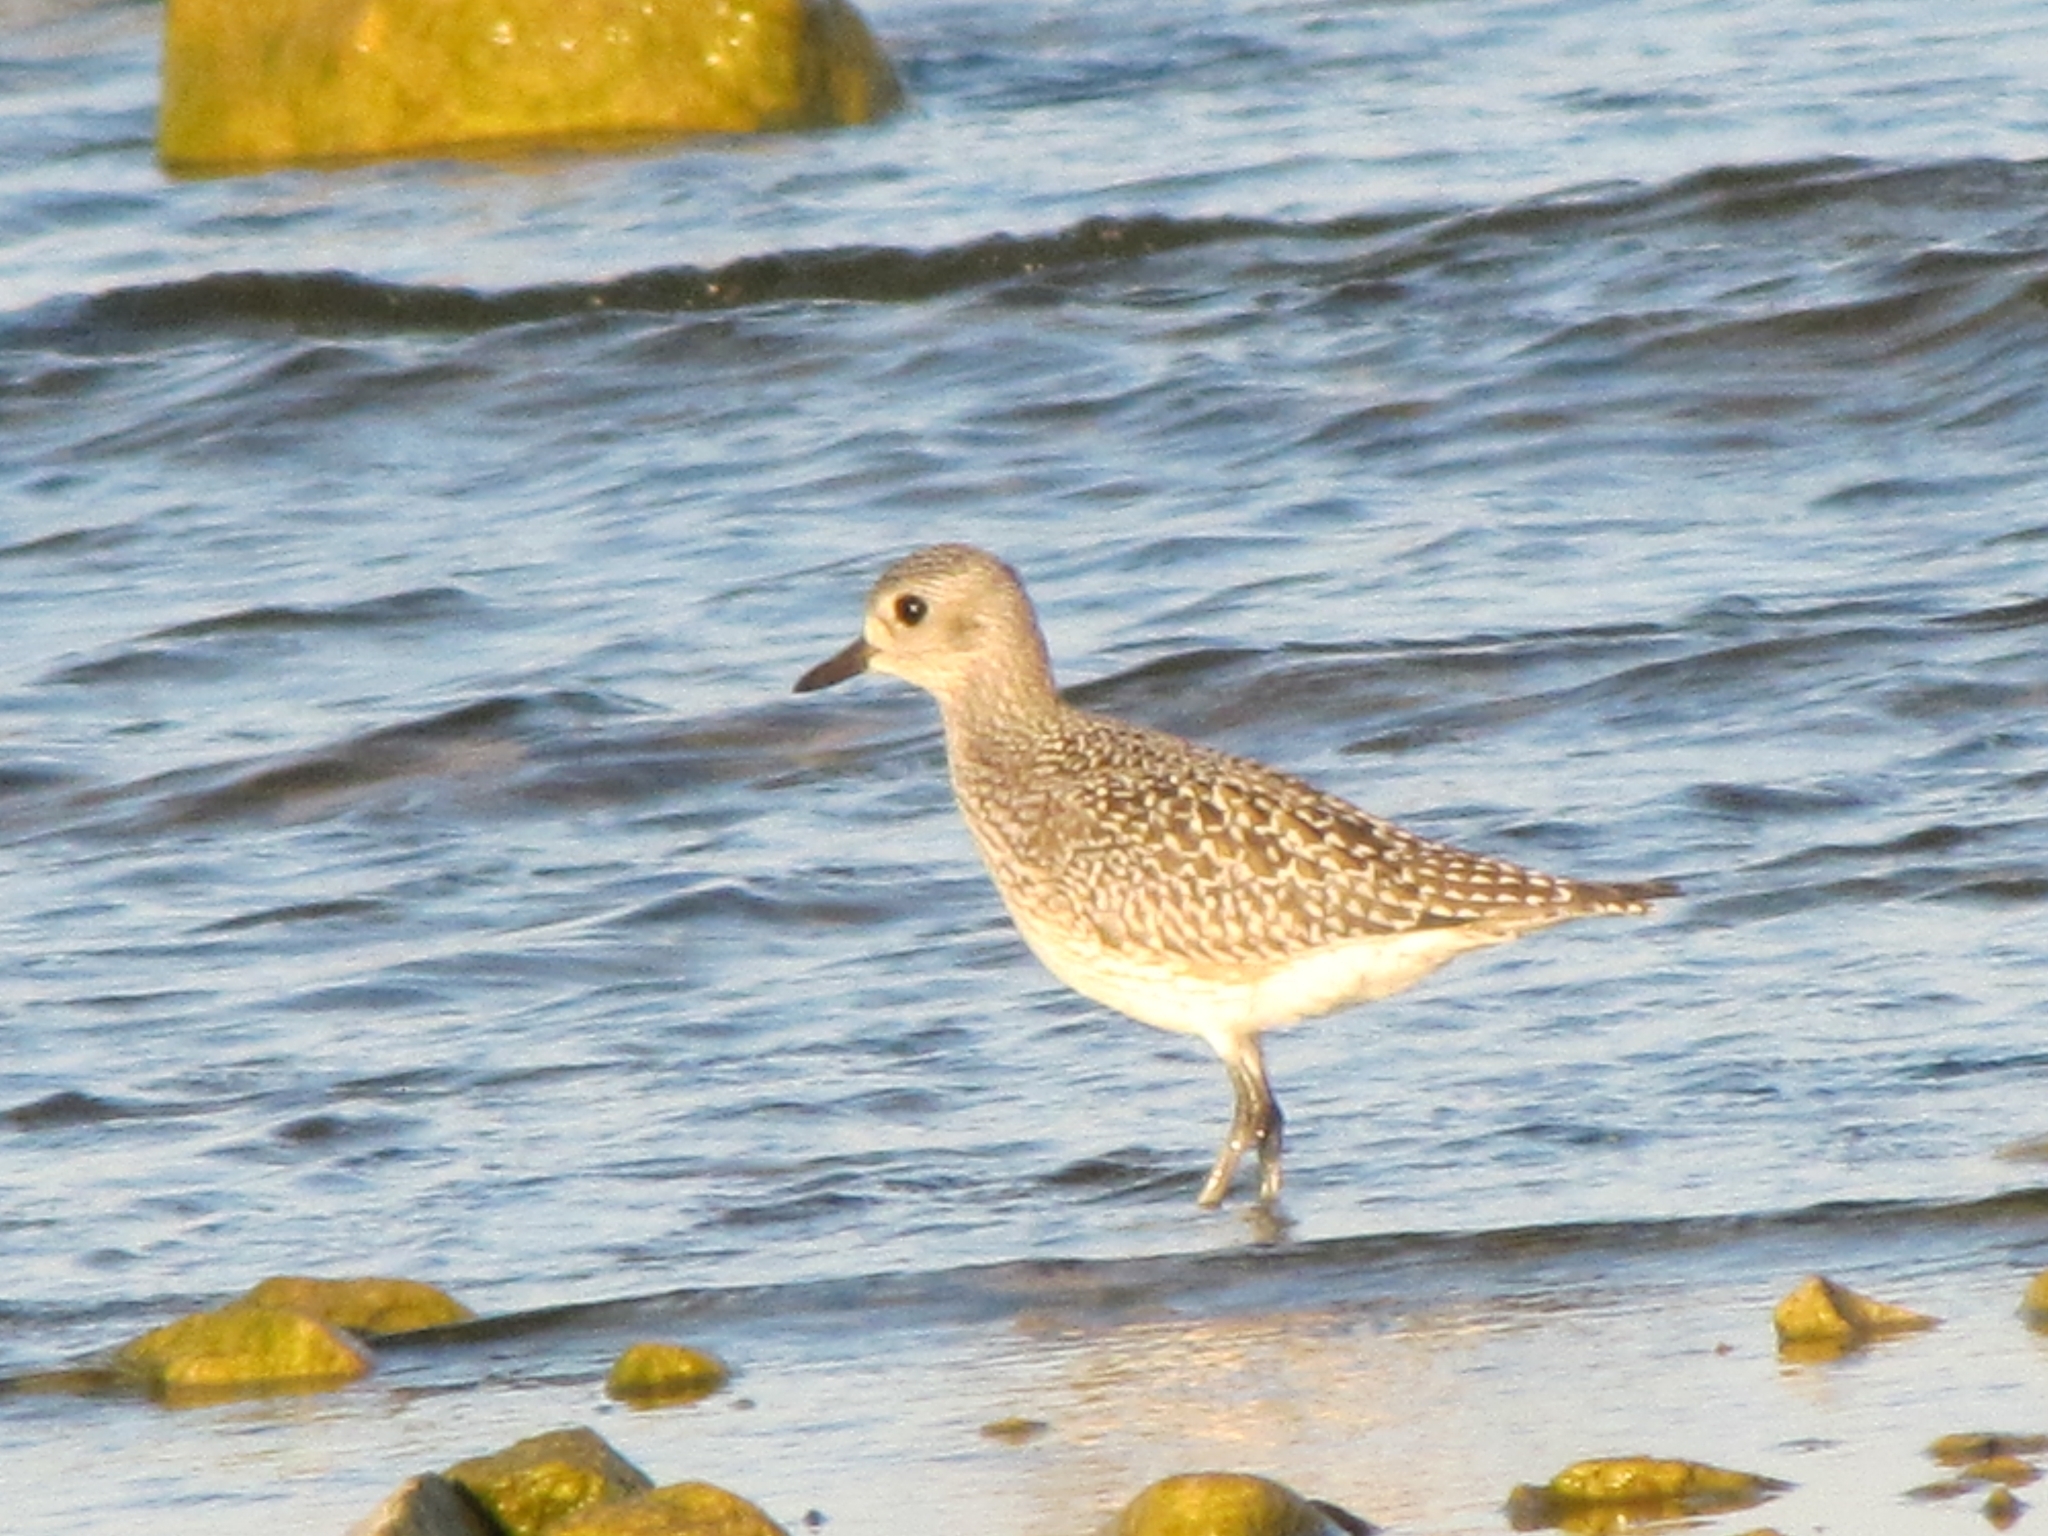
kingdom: Animalia
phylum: Chordata
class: Aves
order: Charadriiformes
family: Charadriidae
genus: Pluvialis
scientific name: Pluvialis squatarola
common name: Grey plover
